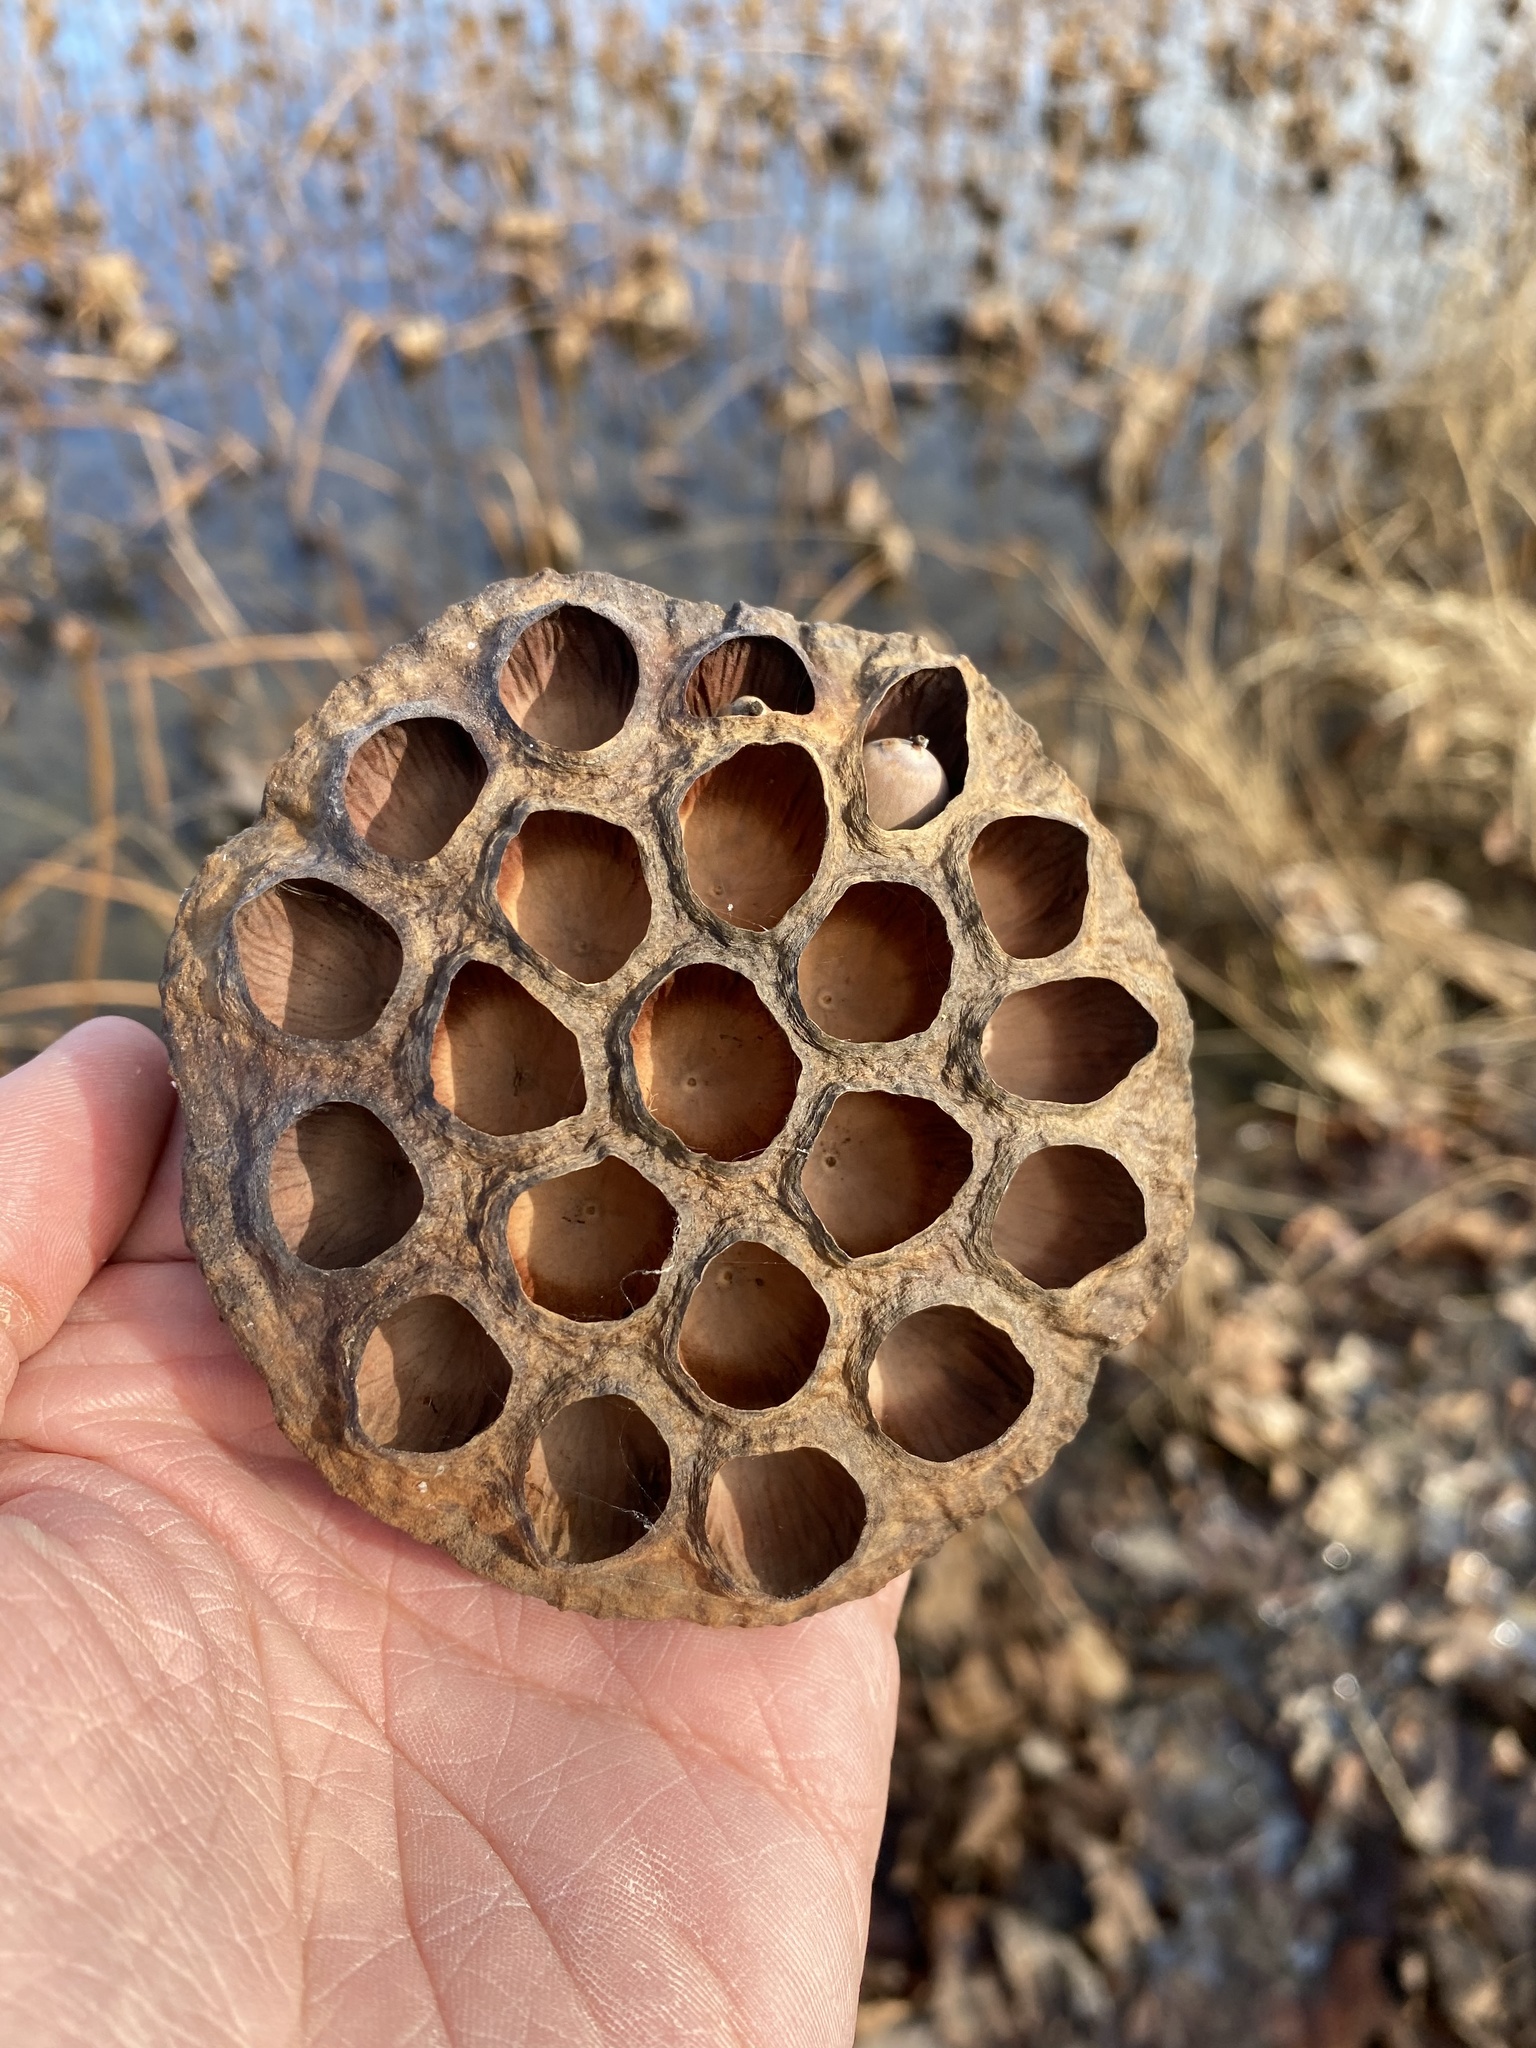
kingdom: Plantae
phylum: Tracheophyta
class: Magnoliopsida
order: Proteales
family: Nelumbonaceae
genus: Nelumbo
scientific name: Nelumbo lutea
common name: American lotus
